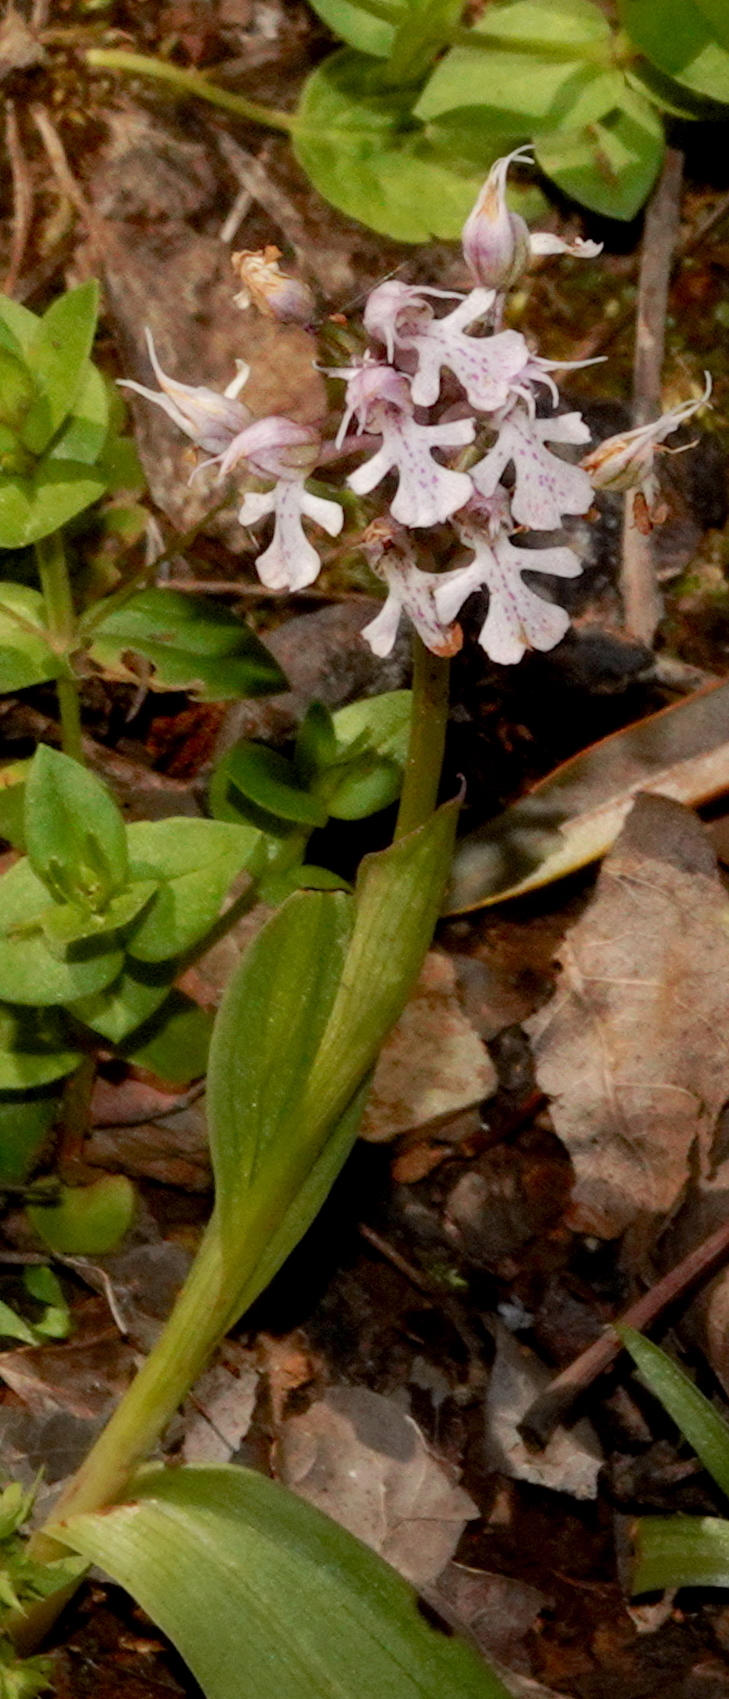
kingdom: Plantae
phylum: Tracheophyta
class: Liliopsida
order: Asparagales
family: Orchidaceae
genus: Neotinea
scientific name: Neotinea conica
